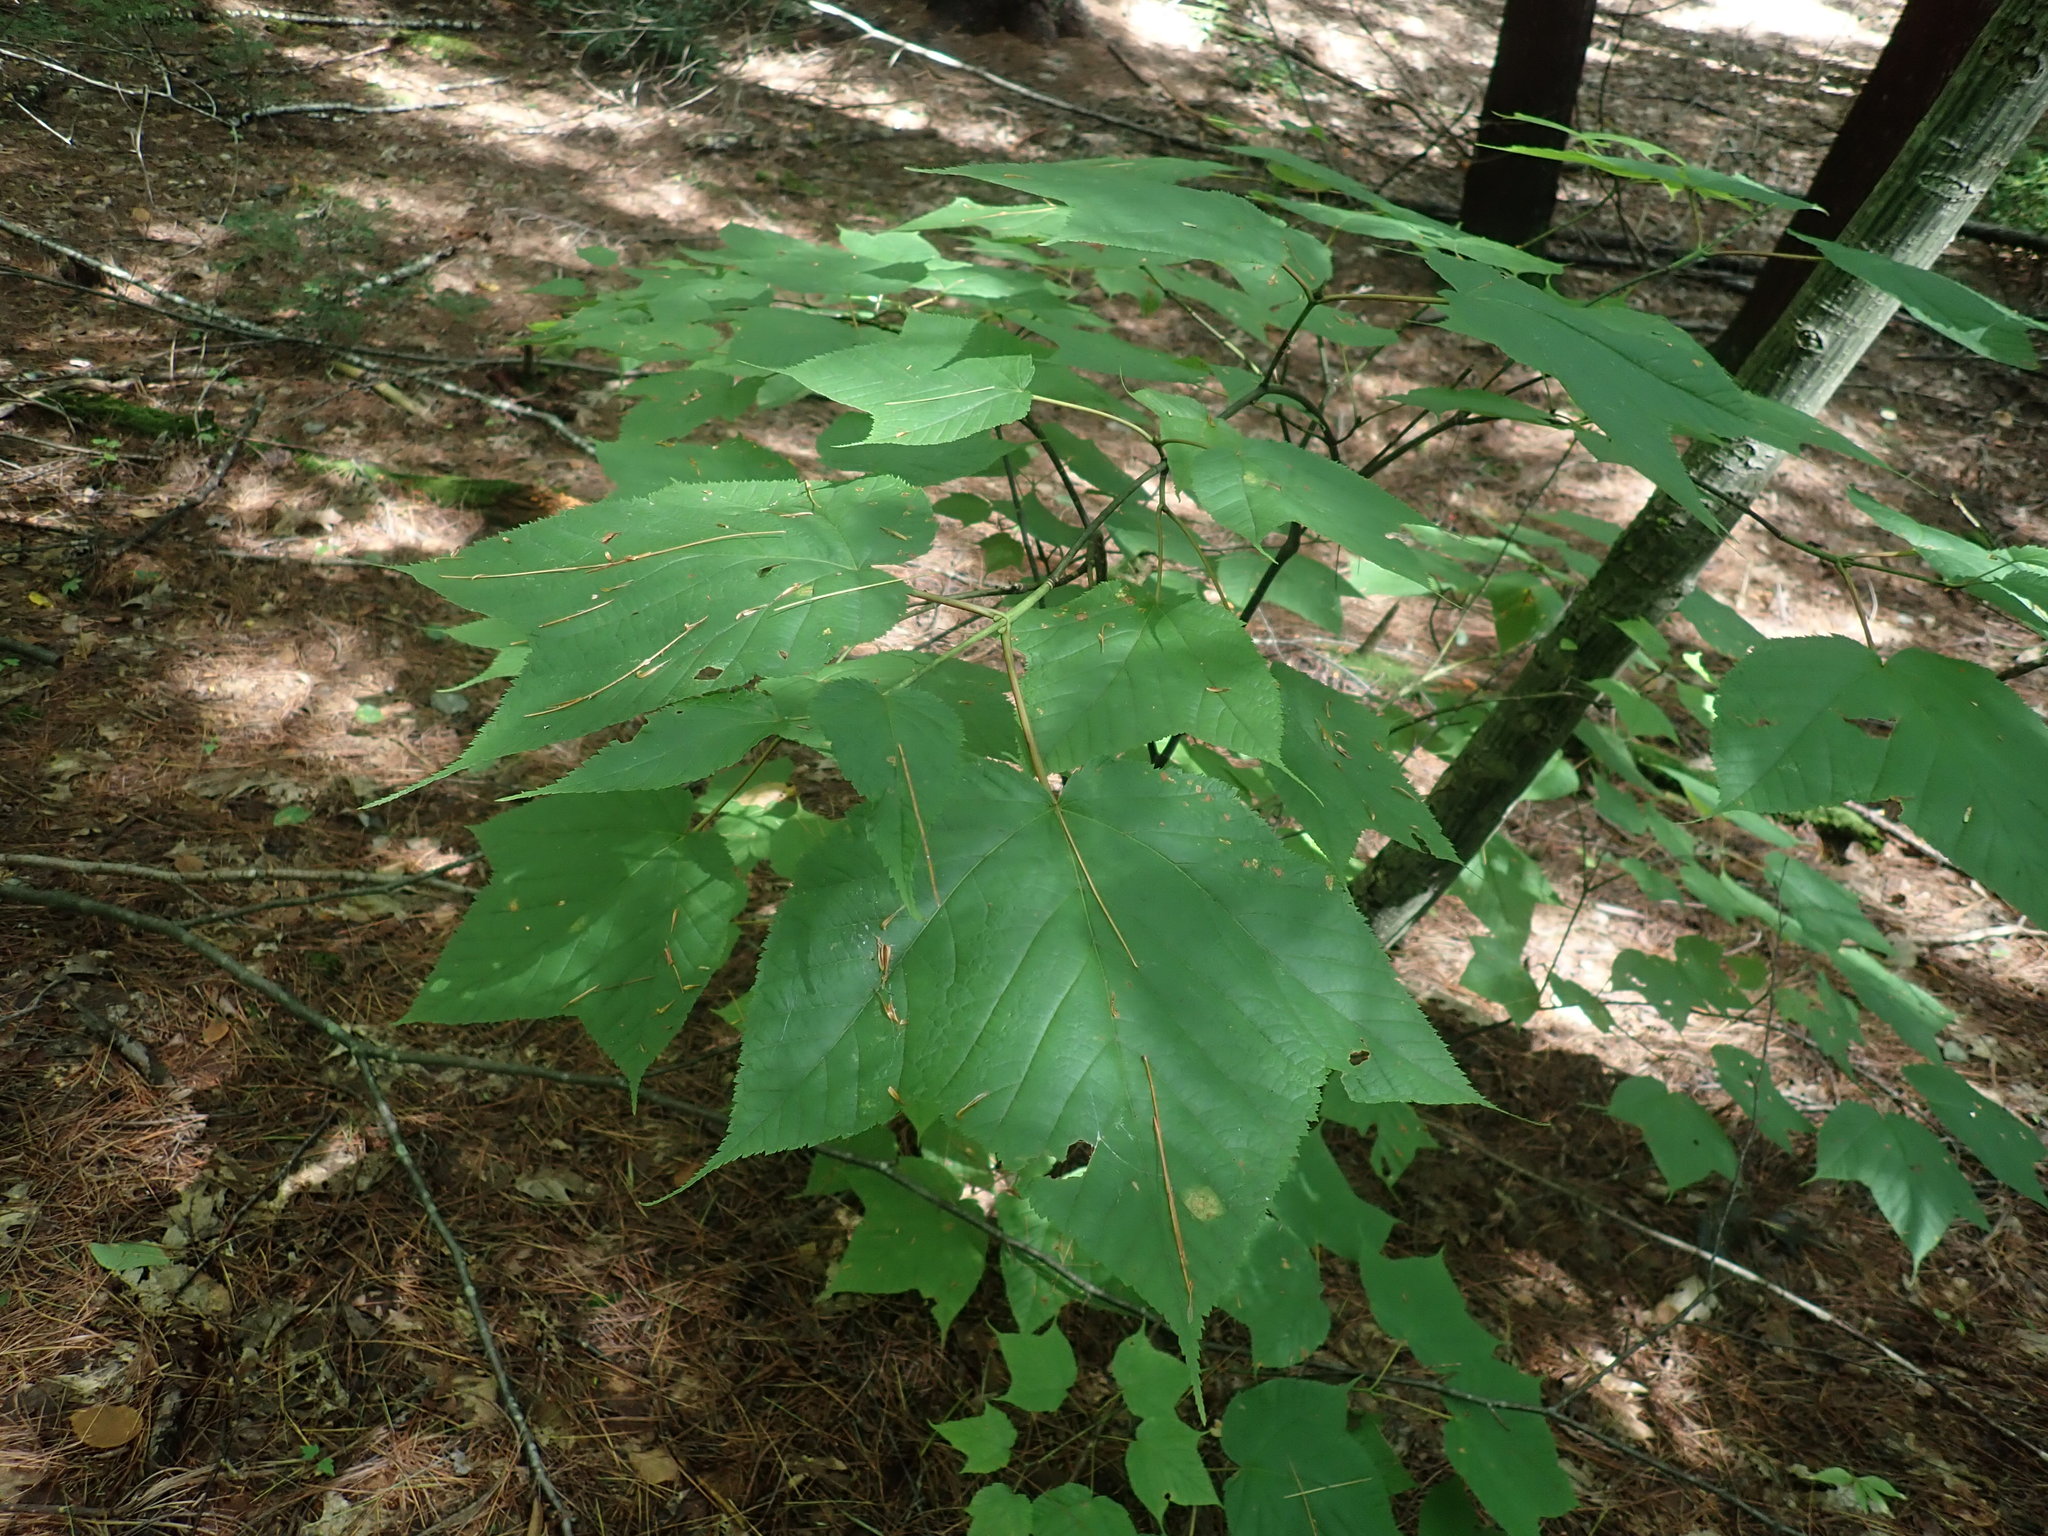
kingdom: Plantae
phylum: Tracheophyta
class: Magnoliopsida
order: Sapindales
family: Sapindaceae
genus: Acer
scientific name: Acer pensylvanicum
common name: Moosewood
